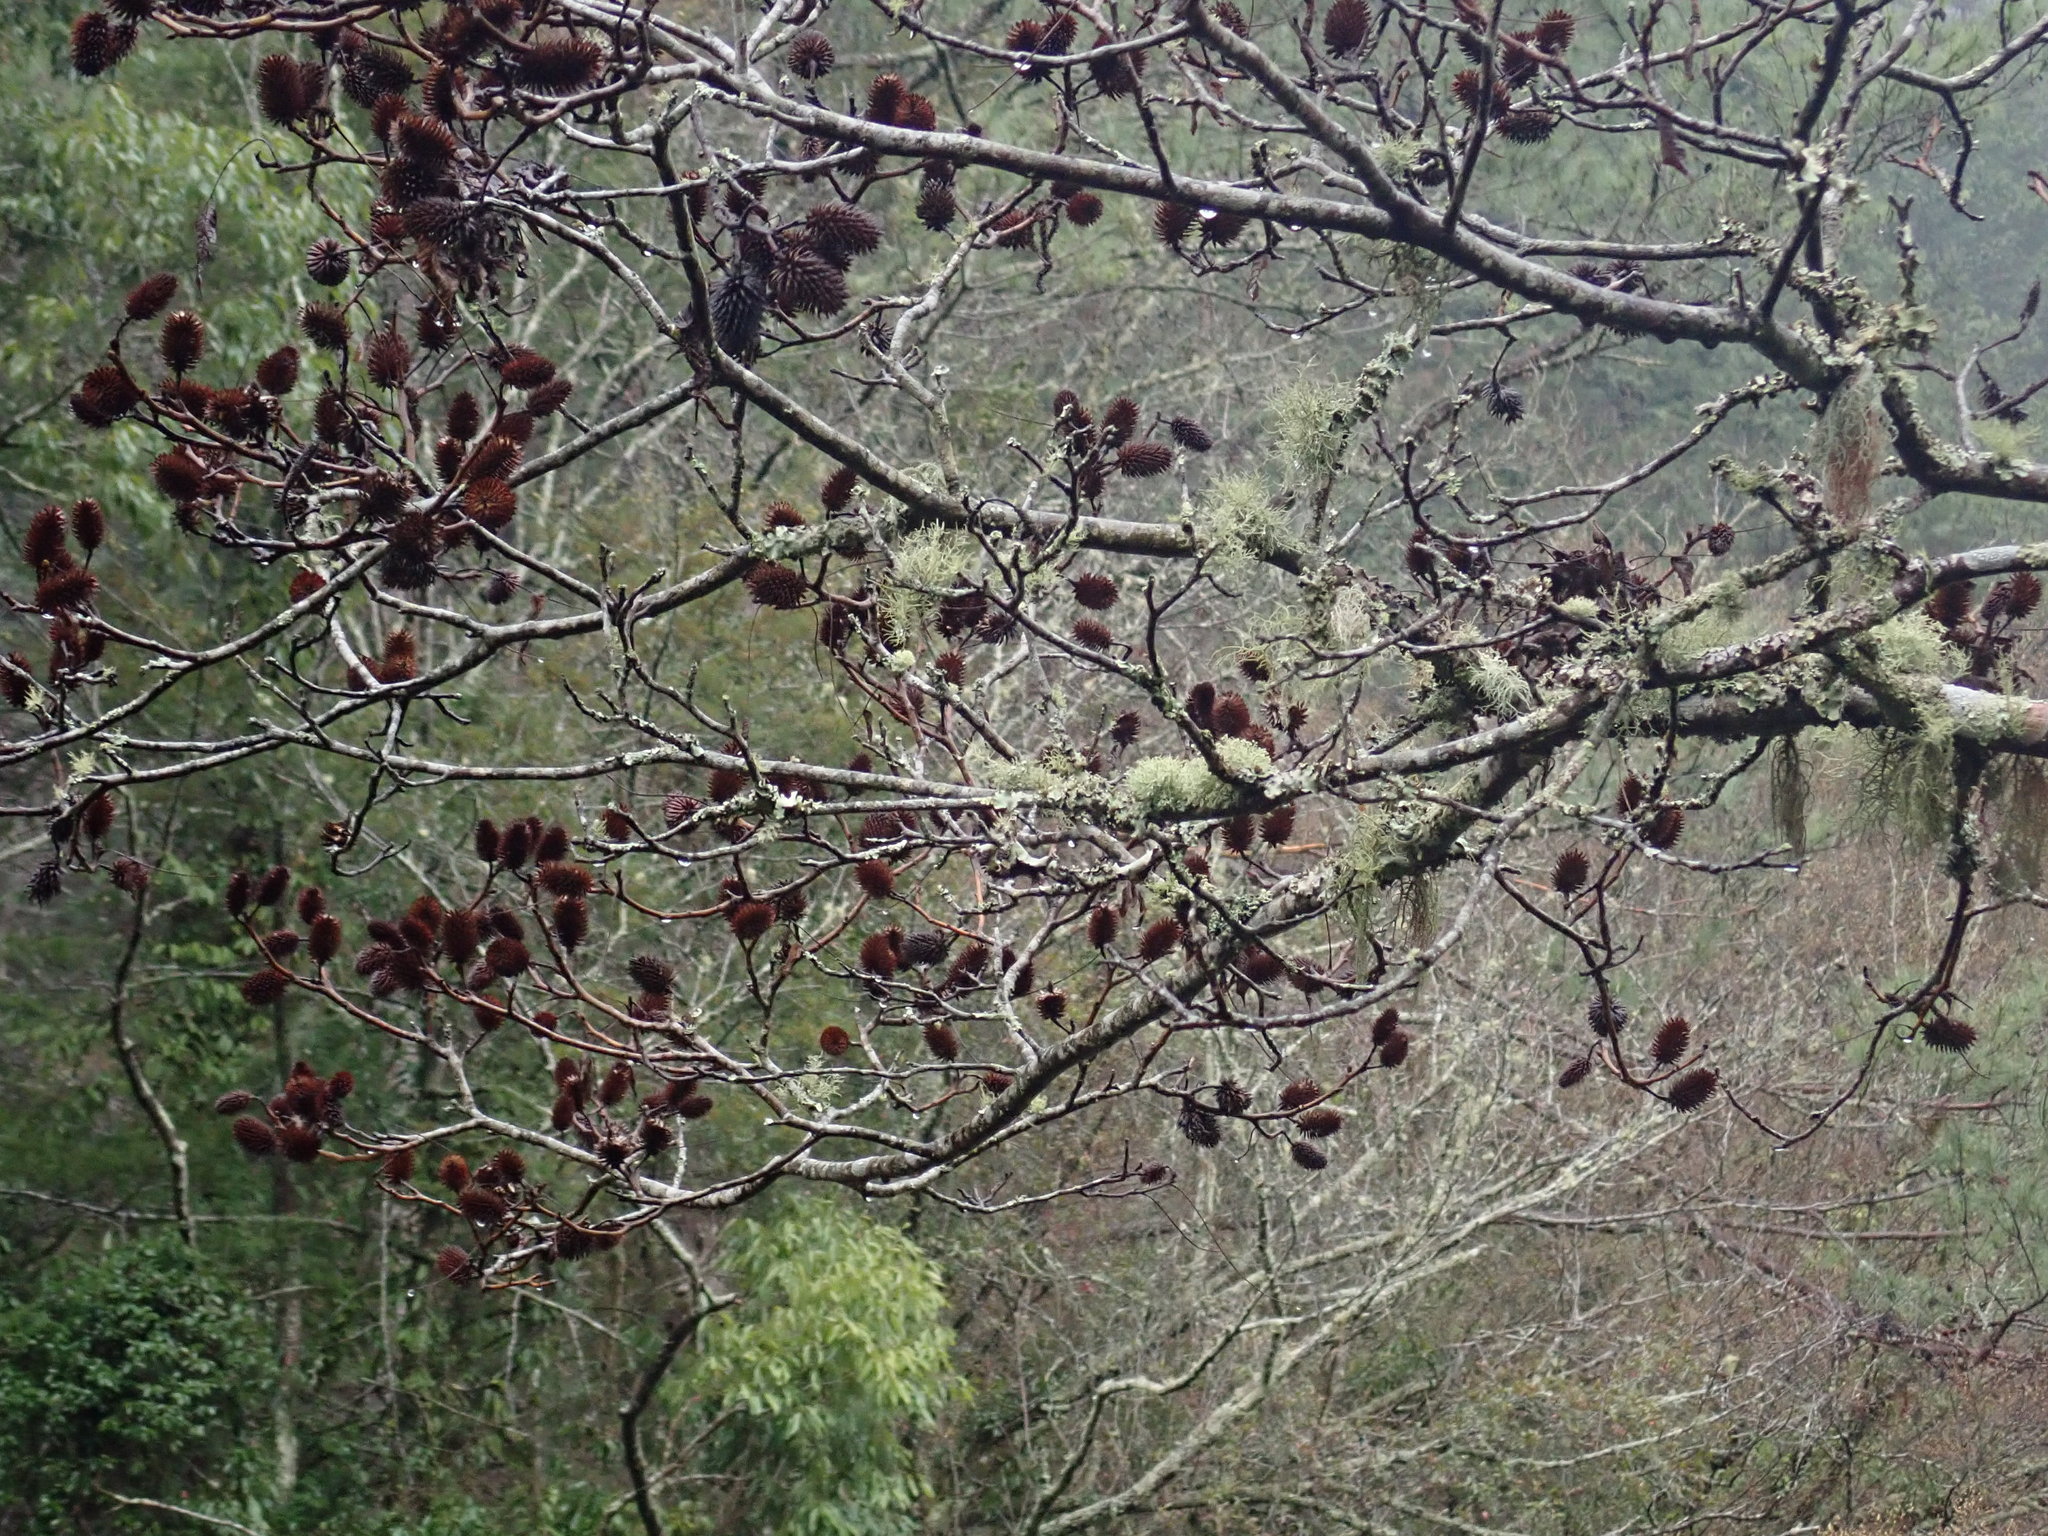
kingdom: Plantae
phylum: Tracheophyta
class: Magnoliopsida
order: Fagales
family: Juglandaceae
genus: Platycarya
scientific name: Platycarya strobilacea
